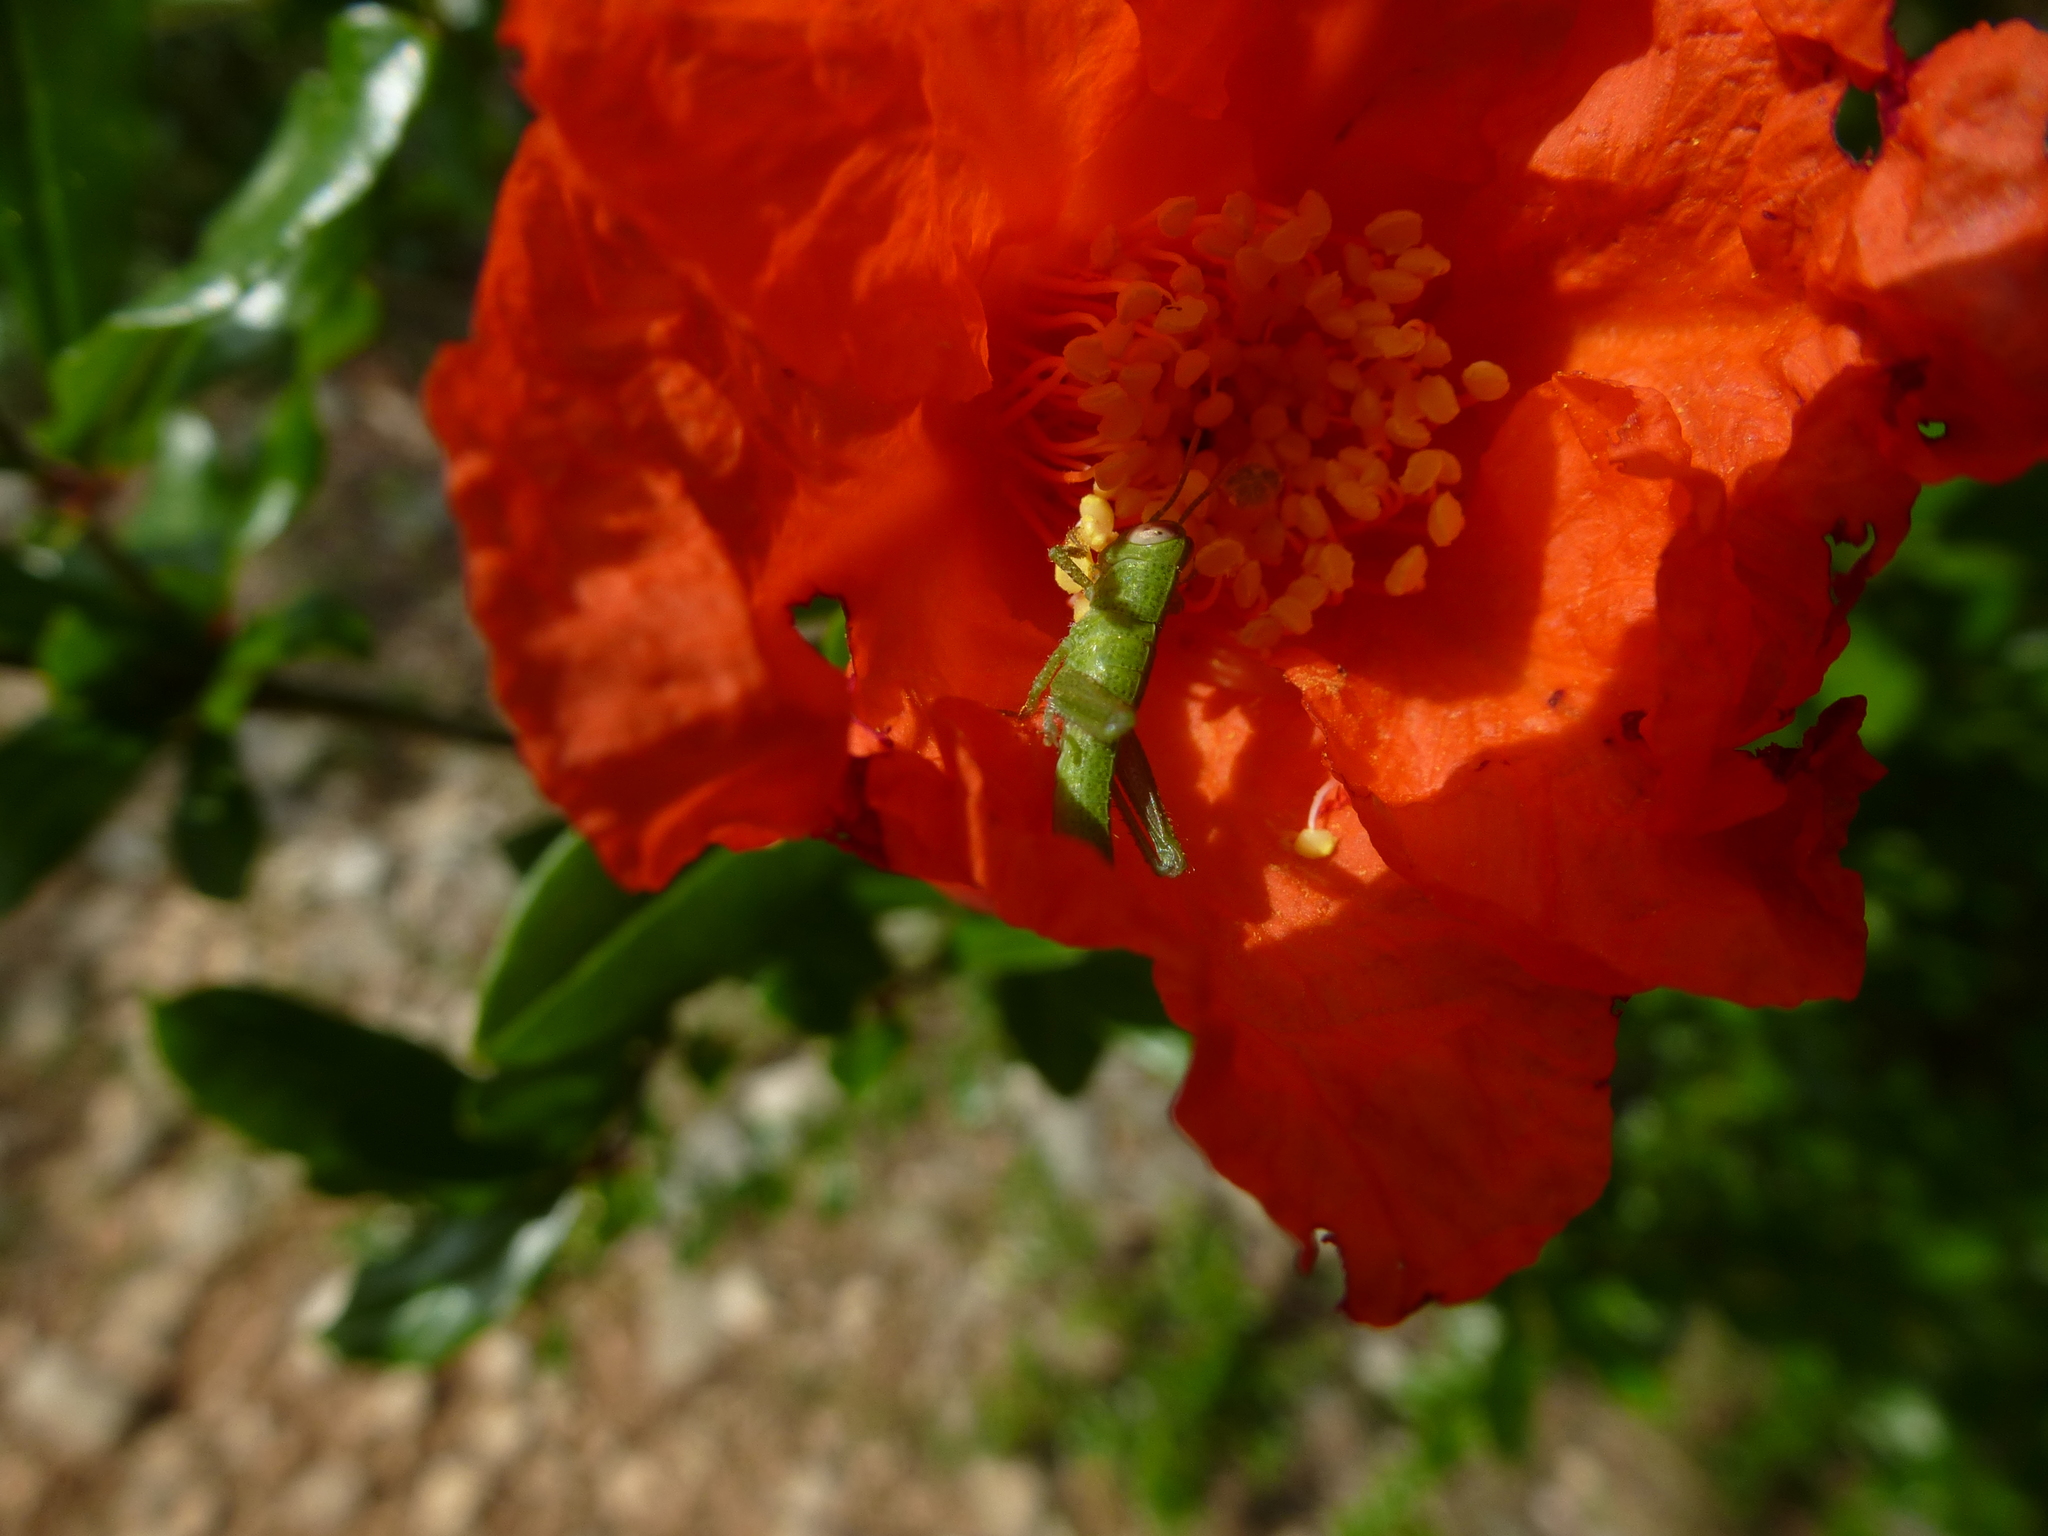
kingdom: Animalia
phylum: Arthropoda
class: Insecta
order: Orthoptera
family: Acrididae
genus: Anacridium
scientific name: Anacridium aegyptium
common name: Egyptian grasshopper
